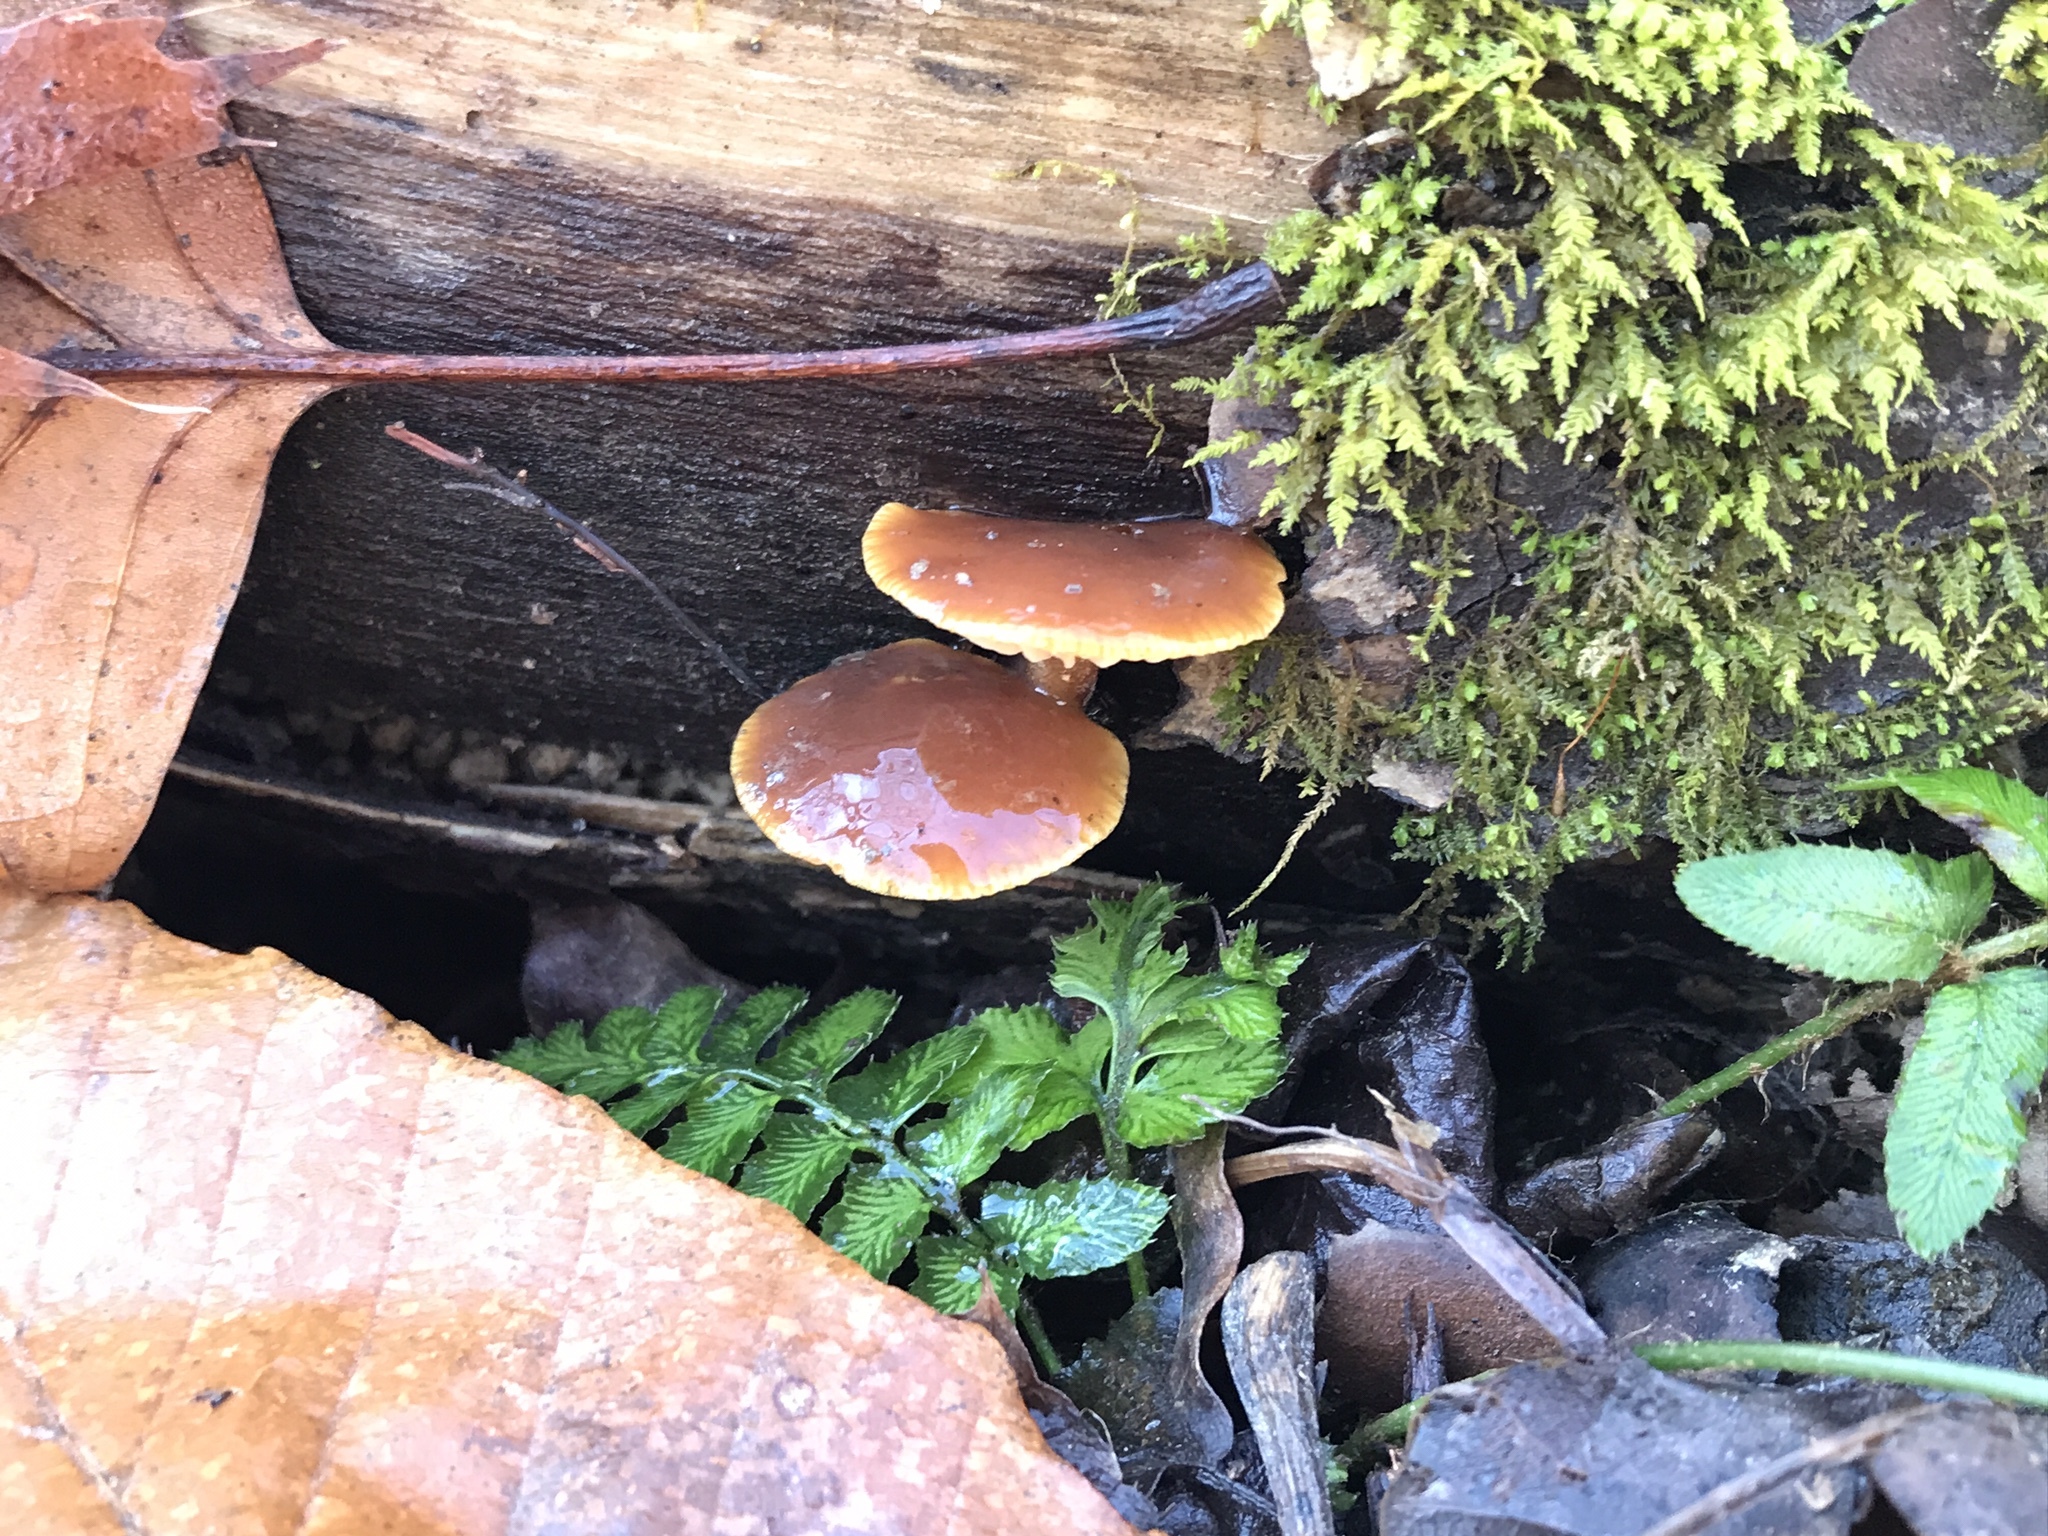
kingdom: Fungi
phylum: Basidiomycota
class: Agaricomycetes
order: Agaricales
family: Physalacriaceae
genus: Flammulina
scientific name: Flammulina velutipes
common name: Velvet shank
